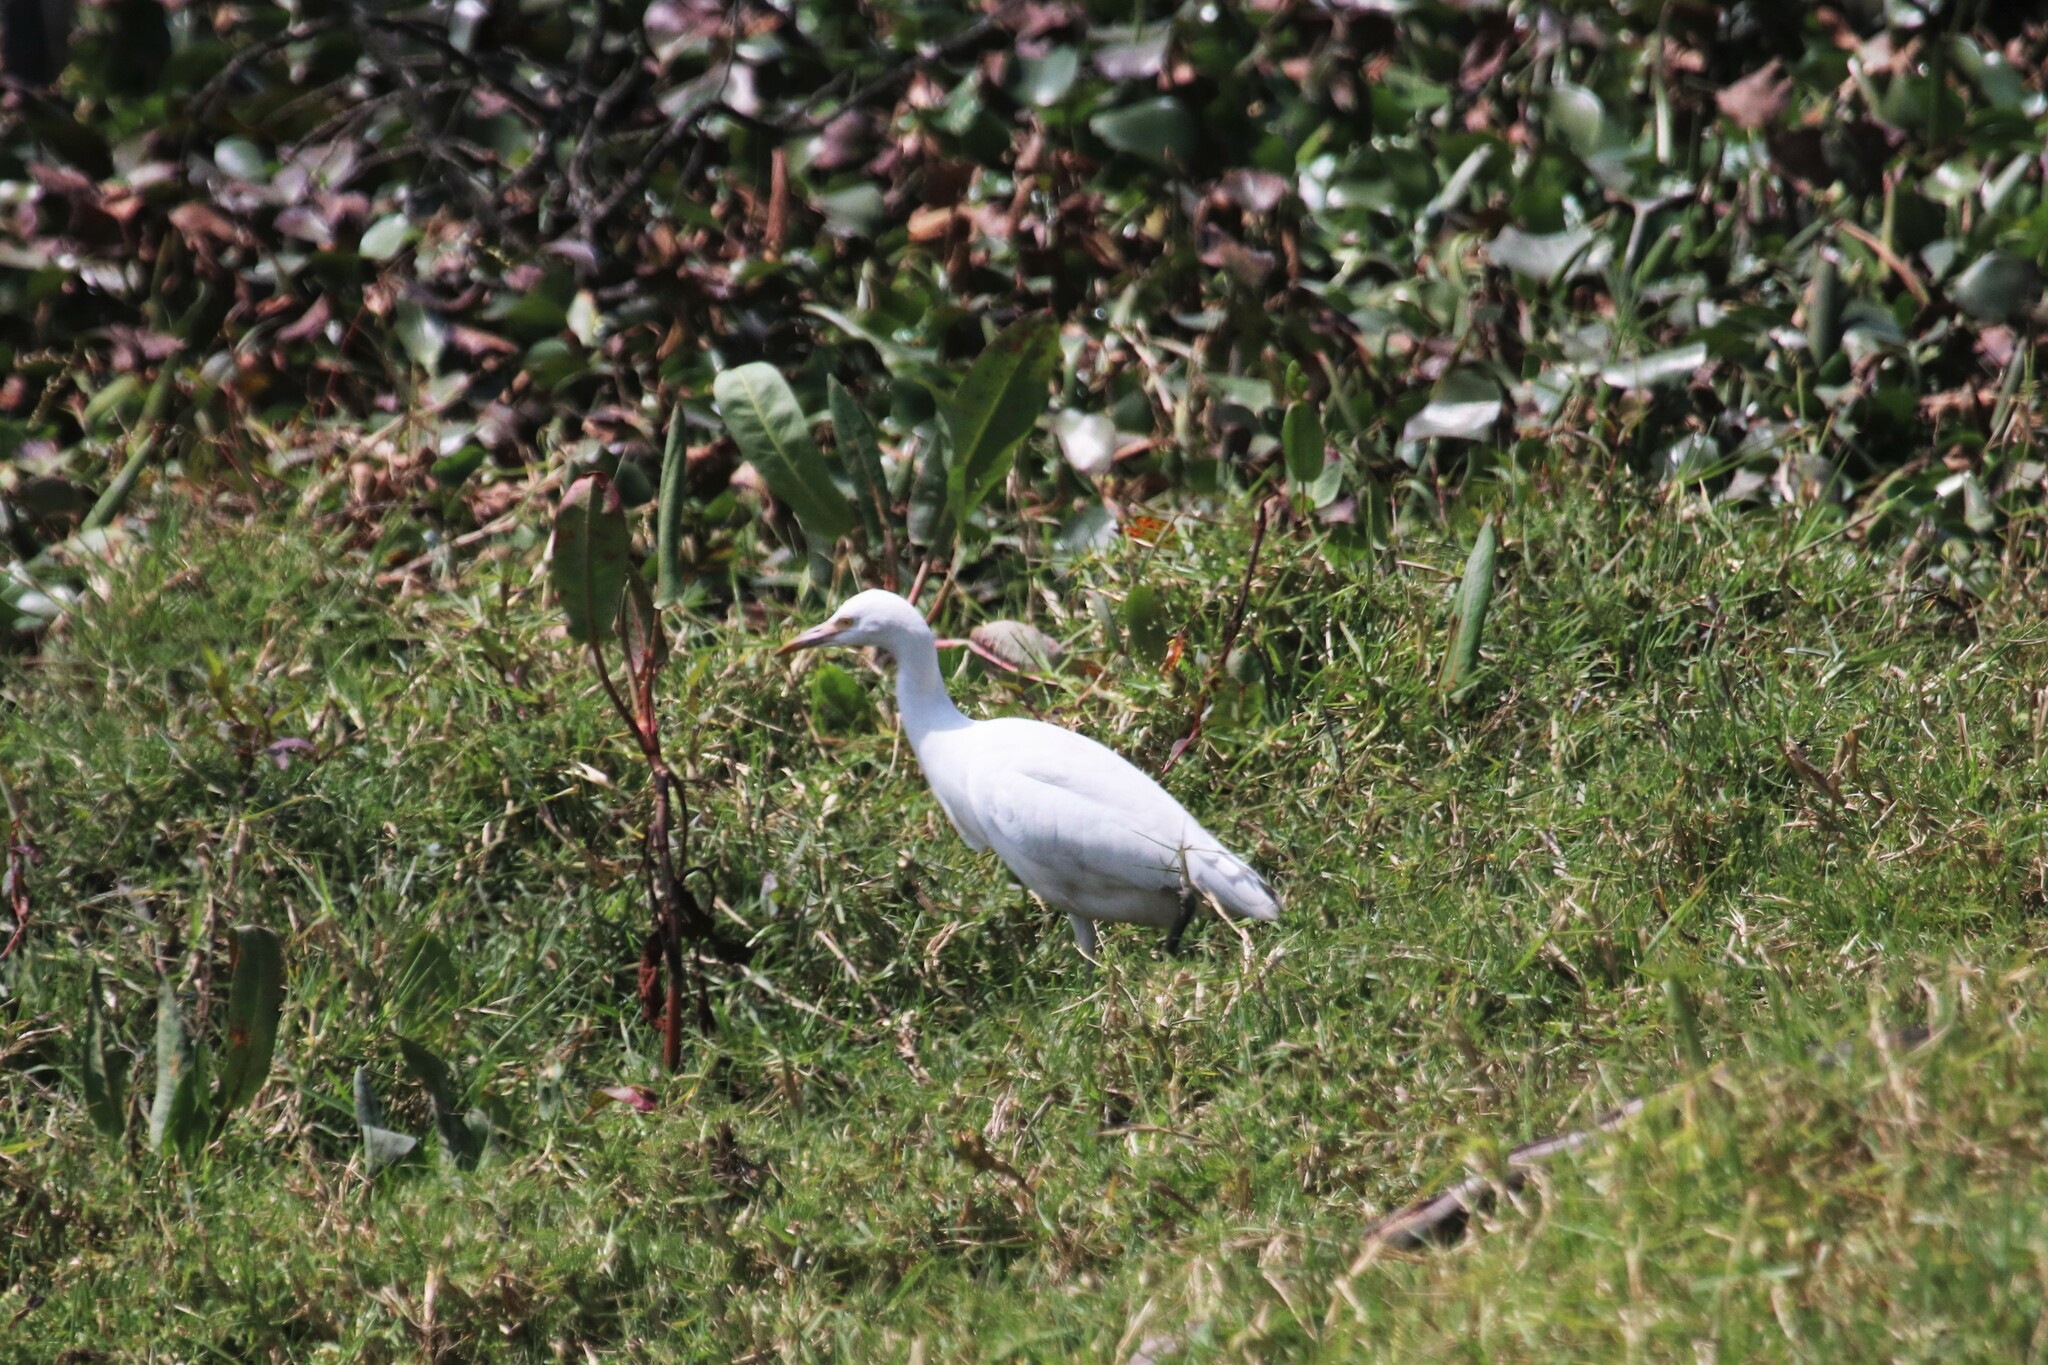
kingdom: Animalia
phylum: Chordata
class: Aves
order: Pelecaniformes
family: Ardeidae
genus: Bubulcus
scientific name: Bubulcus ibis
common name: Cattle egret
